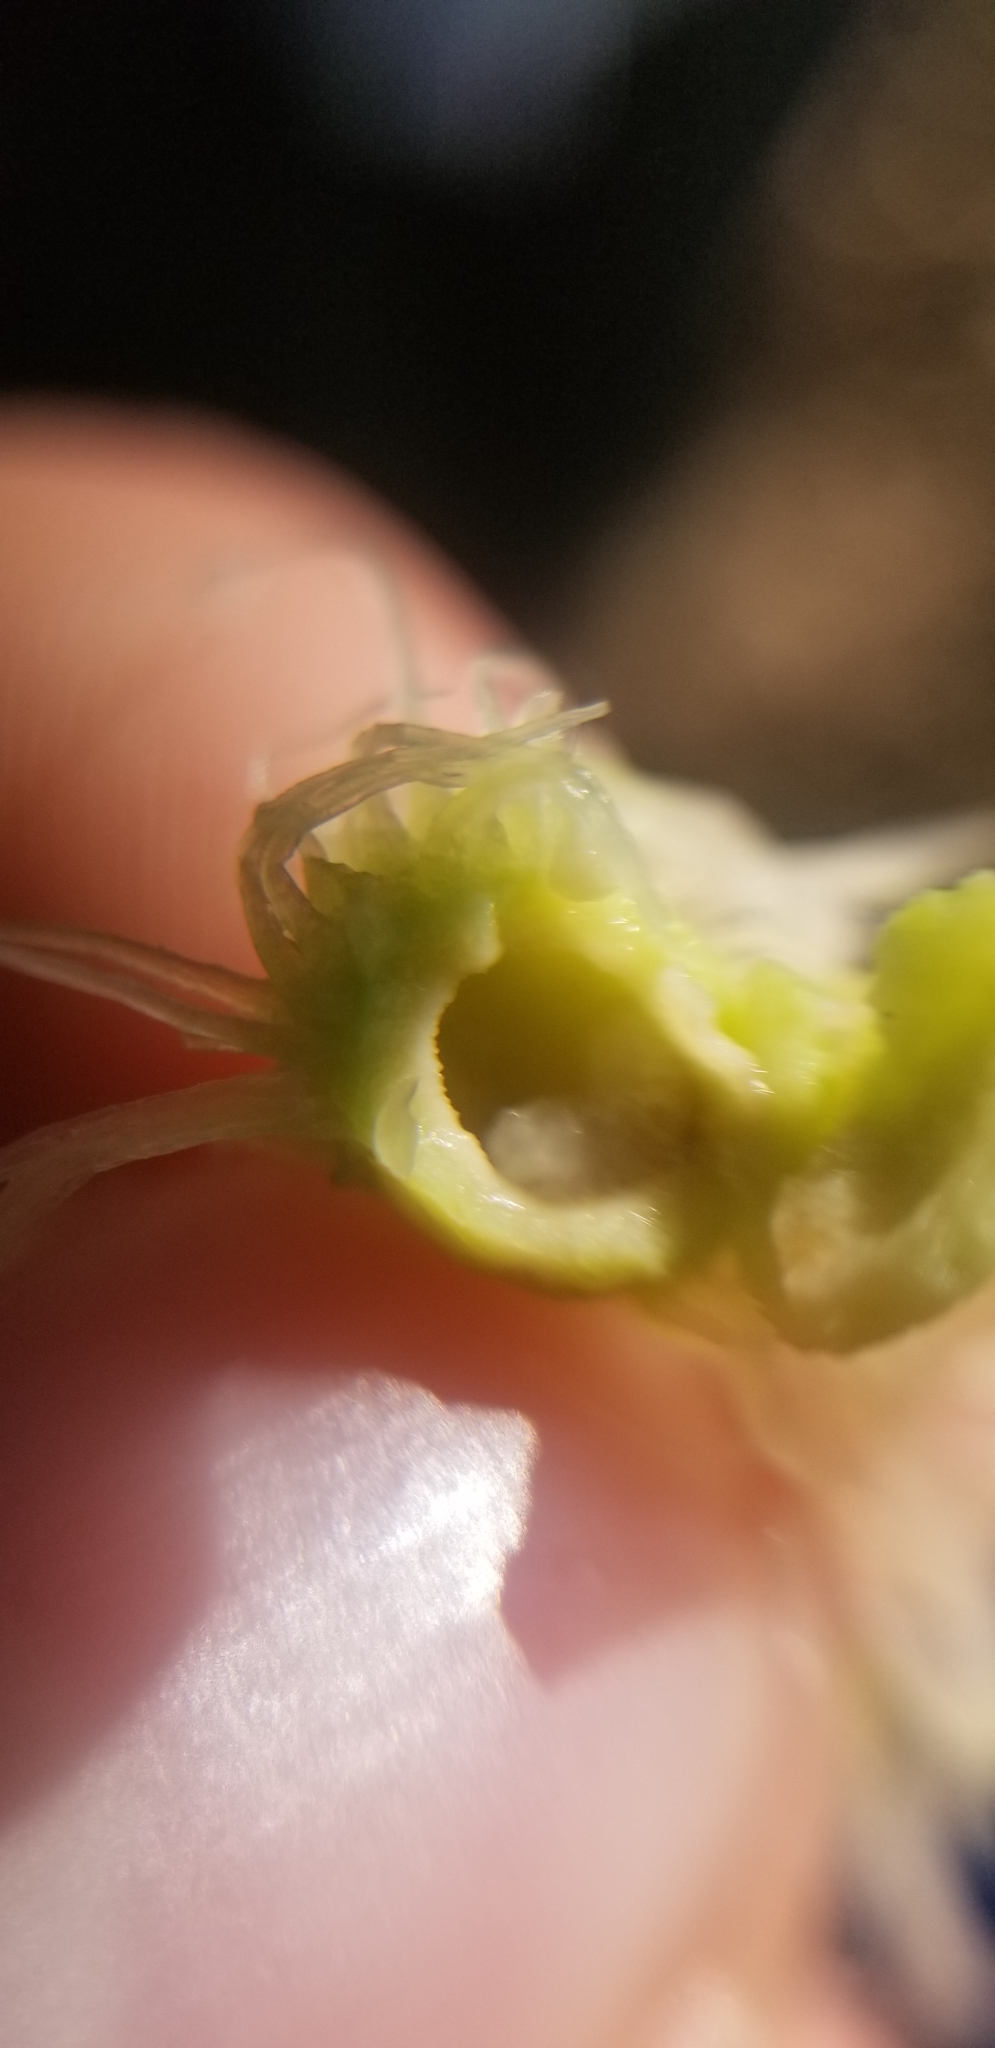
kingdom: Animalia
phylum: Arthropoda
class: Insecta
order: Hymenoptera
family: Cynipidae
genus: Amphibolips
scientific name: Amphibolips
